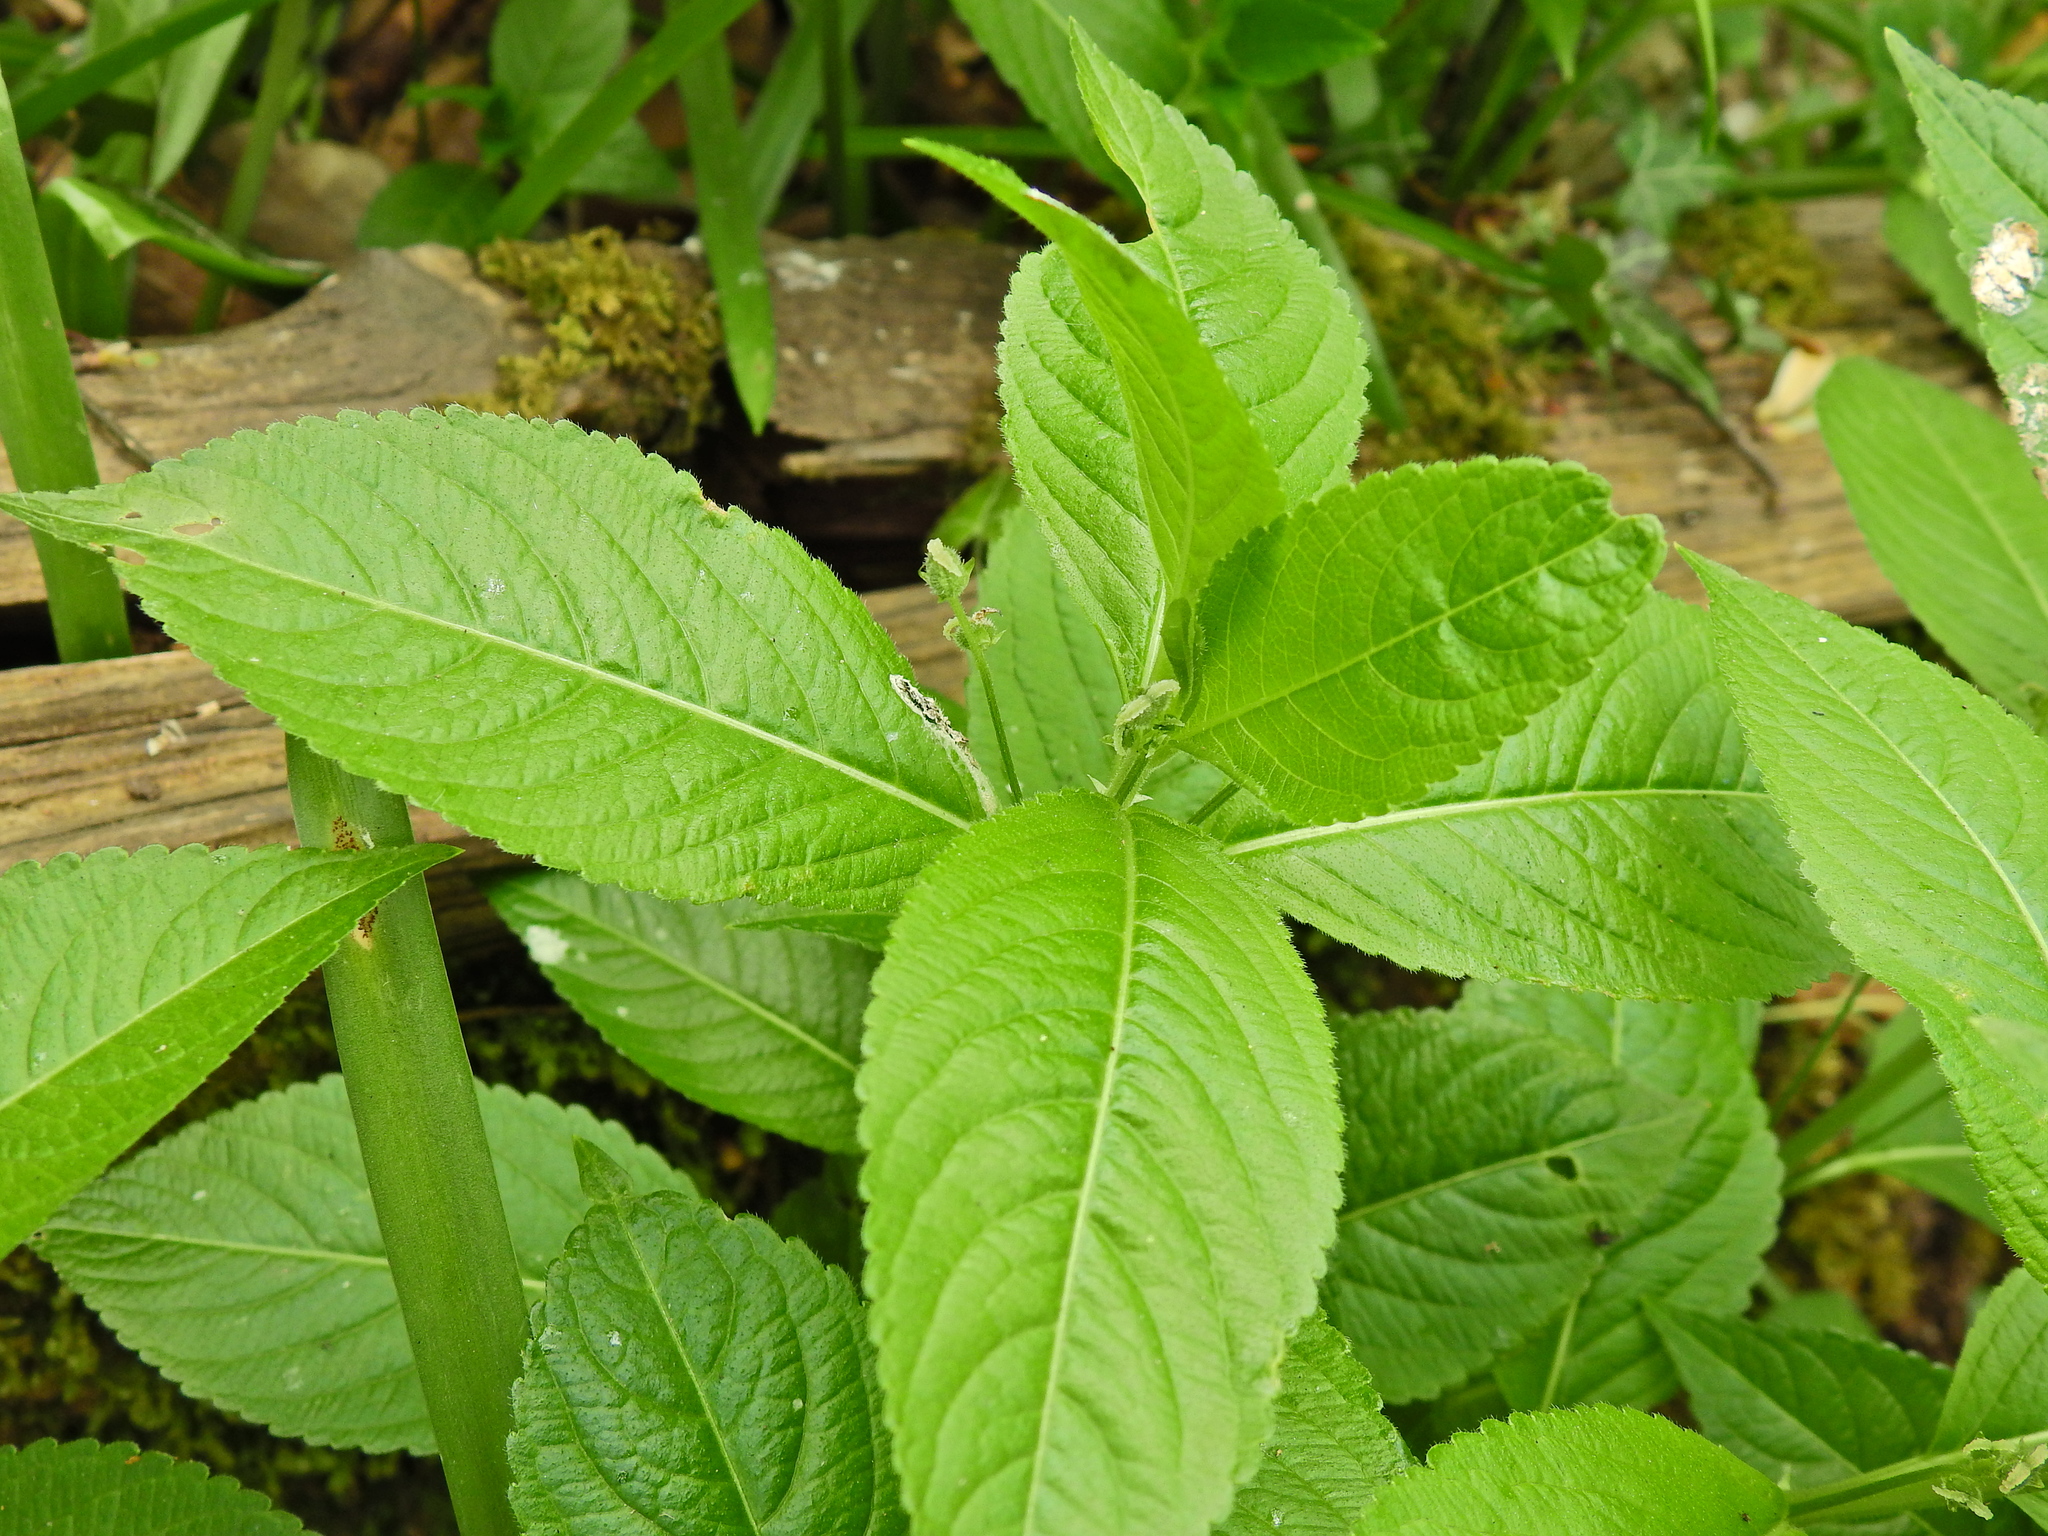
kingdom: Plantae
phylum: Tracheophyta
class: Magnoliopsida
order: Malpighiales
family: Euphorbiaceae
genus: Mercurialis
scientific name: Mercurialis perennis
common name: Dog mercury
